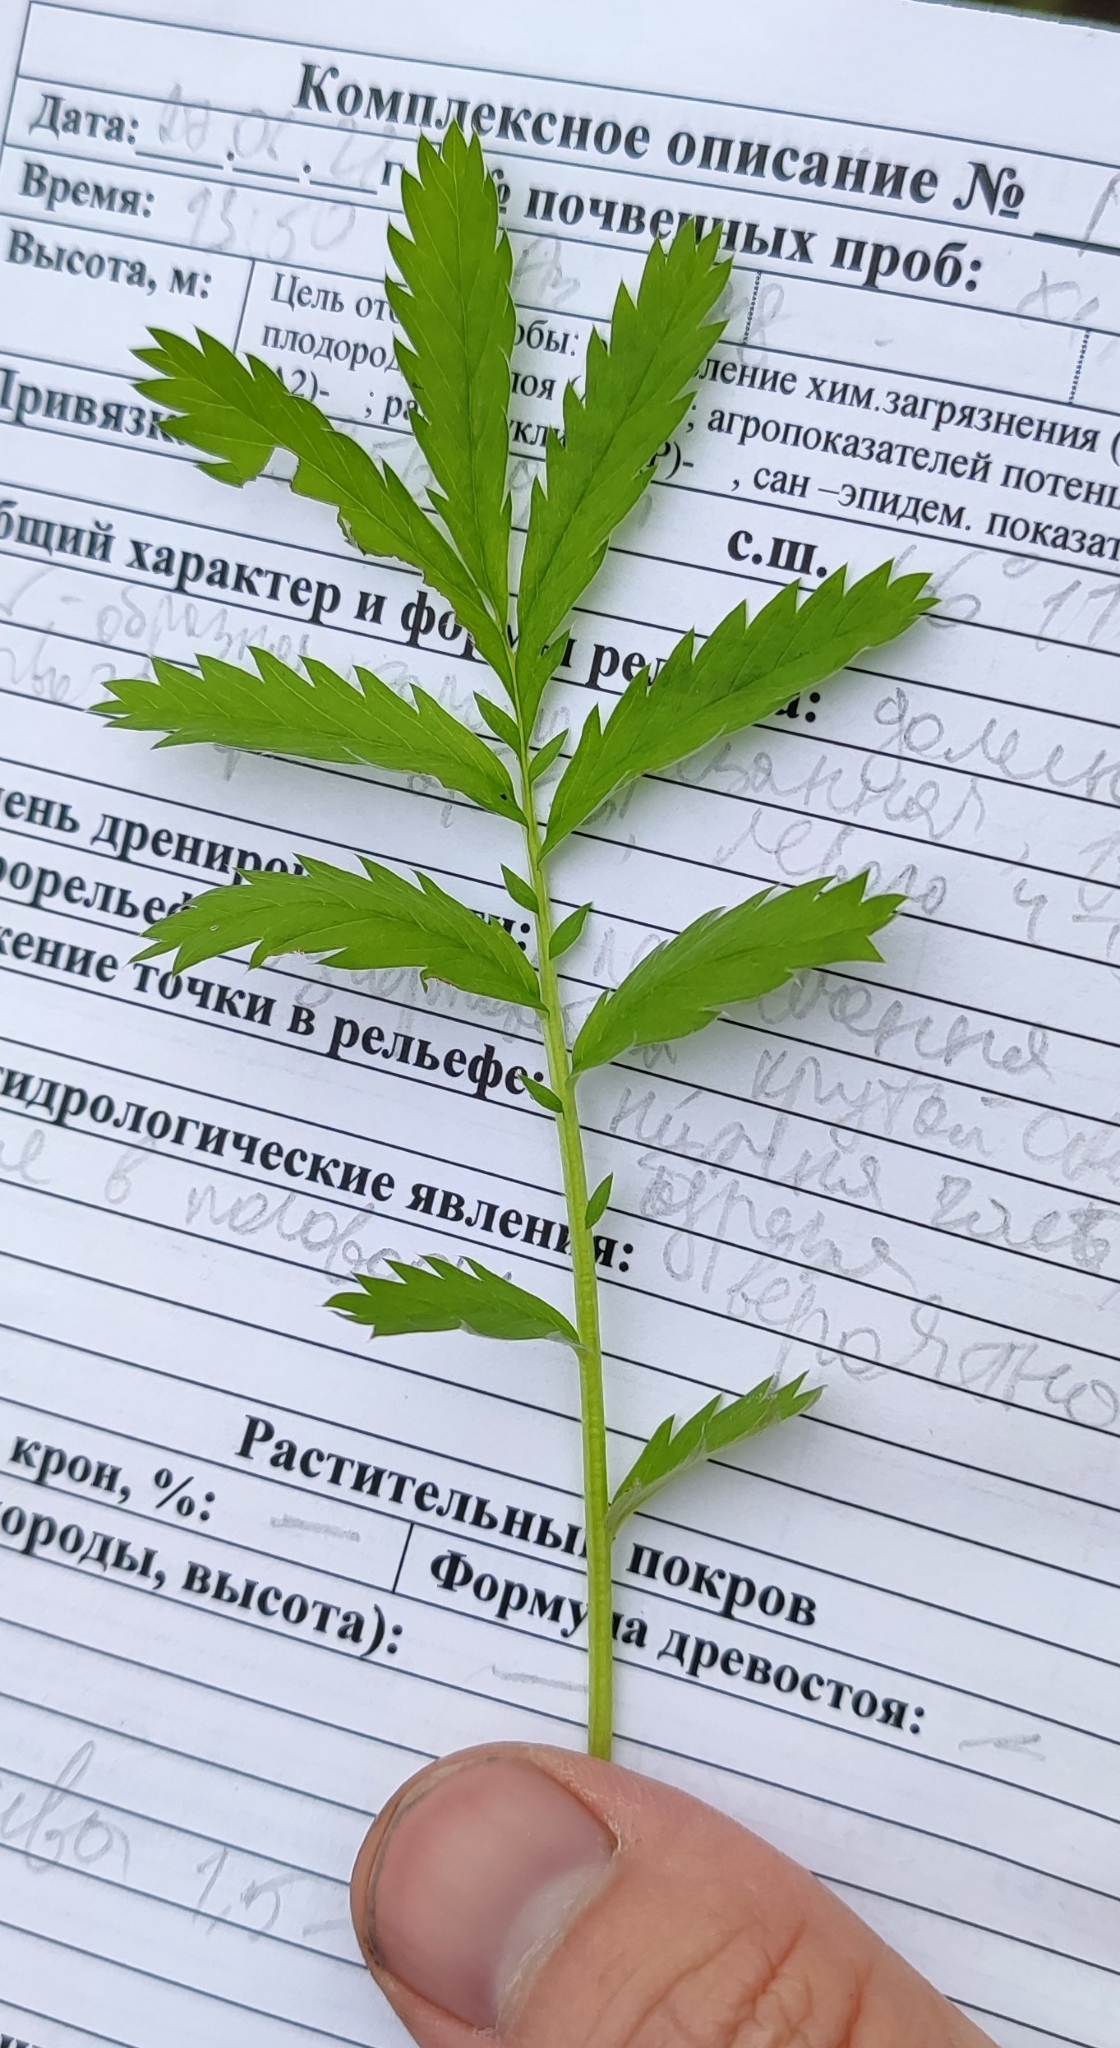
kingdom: Plantae
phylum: Tracheophyta
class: Magnoliopsida
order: Rosales
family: Rosaceae
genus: Argentina
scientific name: Argentina anserina
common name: Common silverweed
